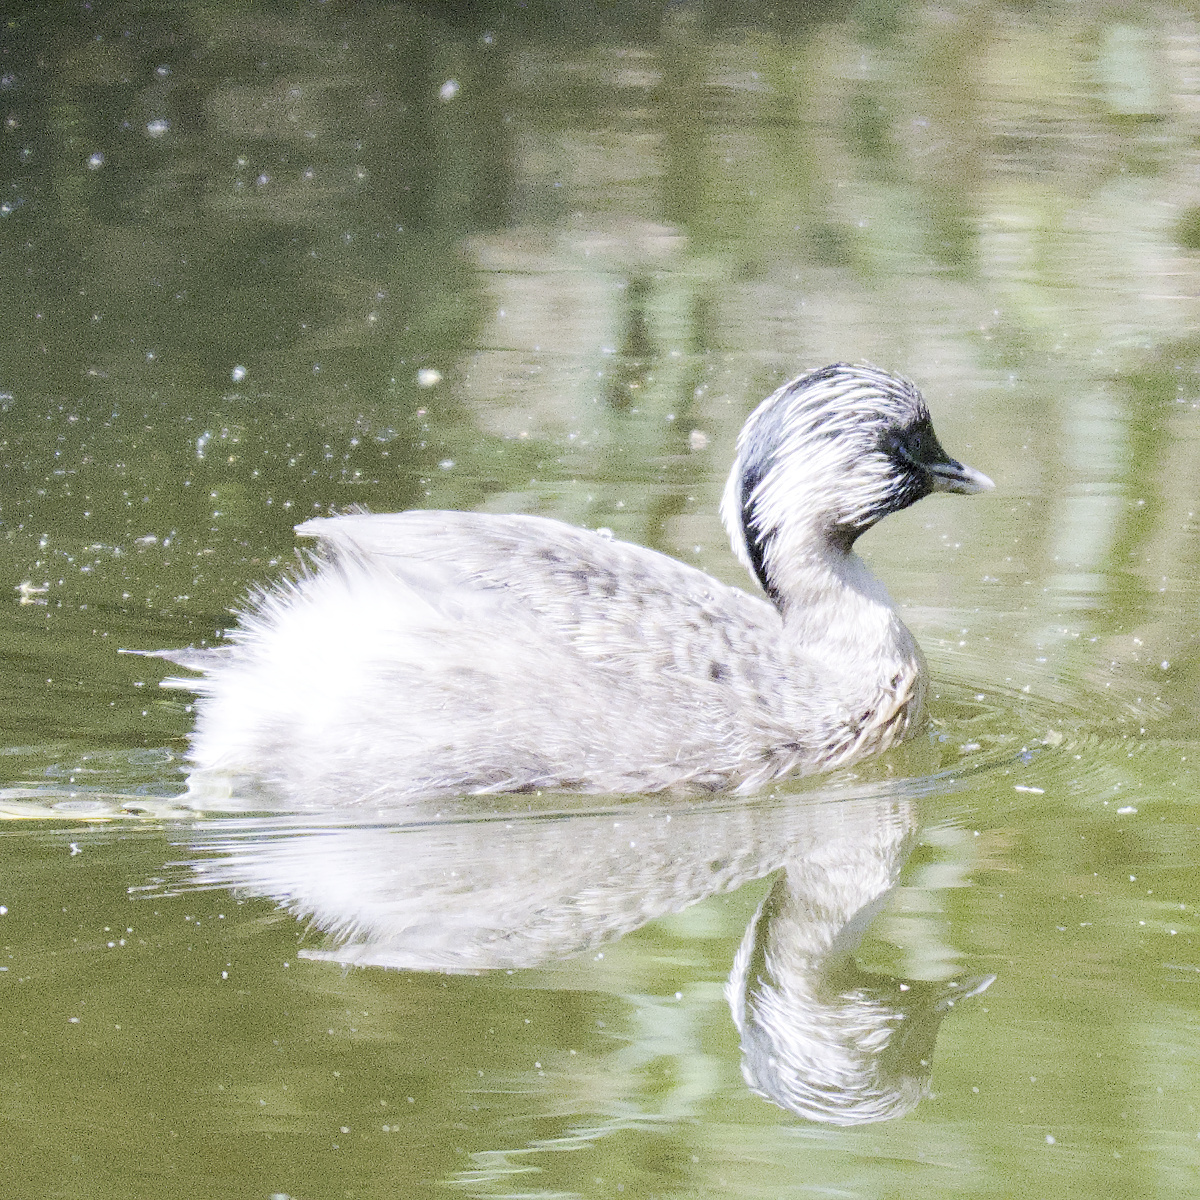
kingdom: Animalia
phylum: Chordata
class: Aves
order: Podicipediformes
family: Podicipedidae
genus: Poliocephalus
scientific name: Poliocephalus poliocephalus
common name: Hoary-headed grebe
